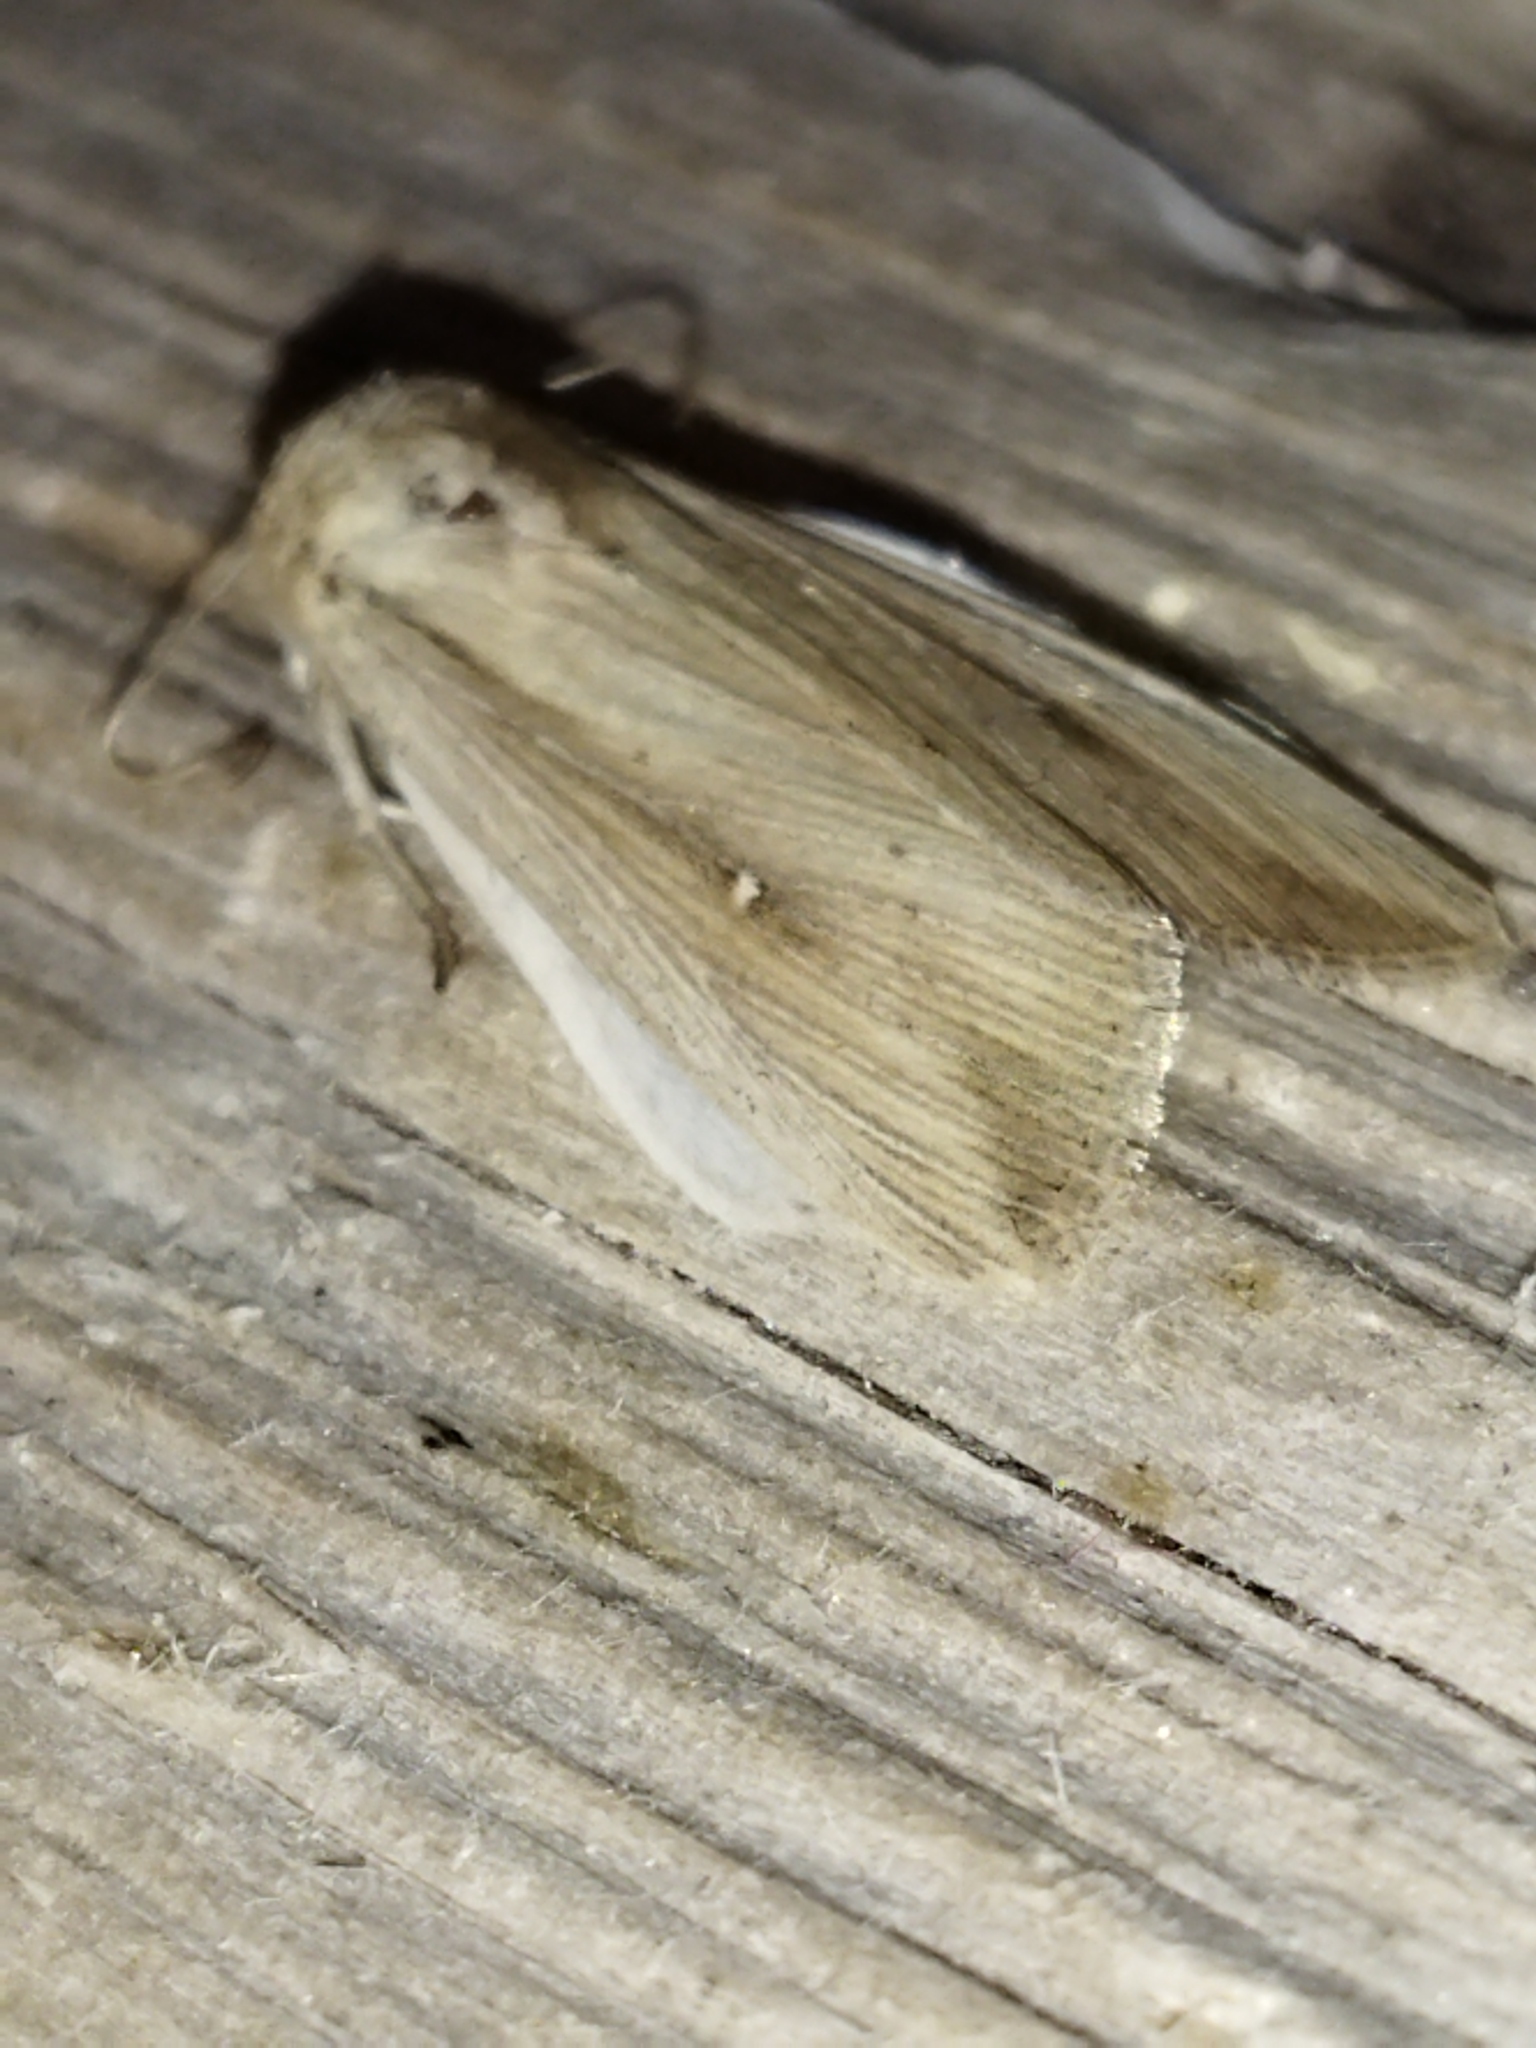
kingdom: Animalia
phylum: Arthropoda
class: Insecta
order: Lepidoptera
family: Noctuidae
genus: Leucania
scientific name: Leucania loreyi
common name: The cosmopolitan
